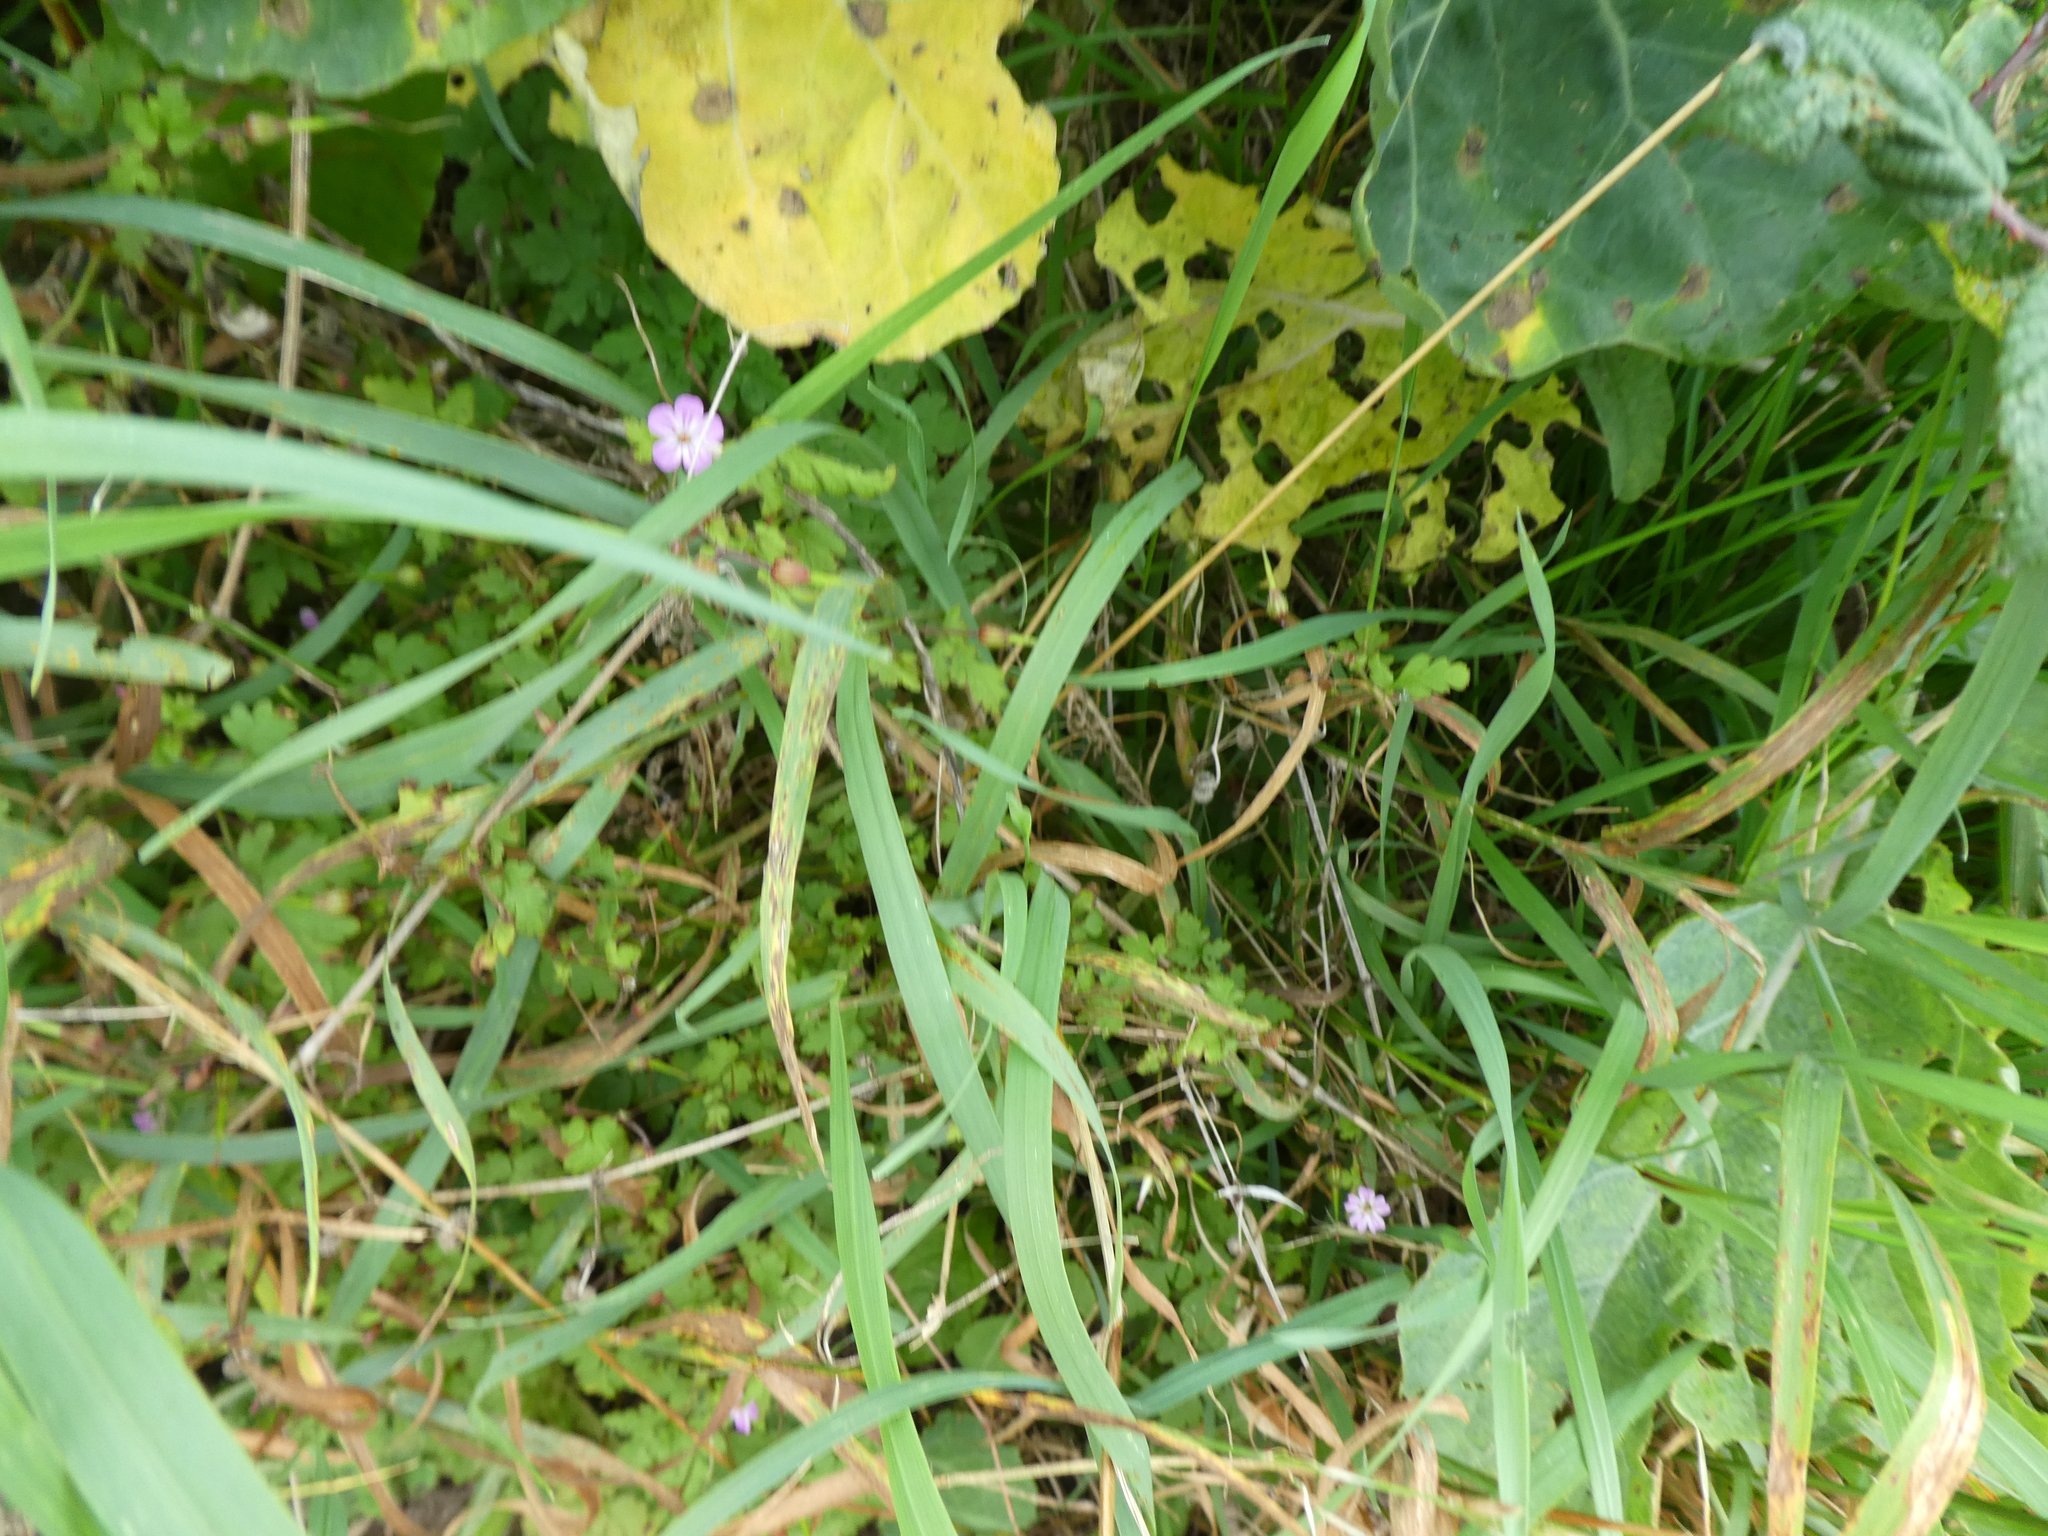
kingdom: Plantae
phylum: Tracheophyta
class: Magnoliopsida
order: Geraniales
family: Geraniaceae
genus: Geranium
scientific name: Geranium robertianum
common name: Herb-robert
